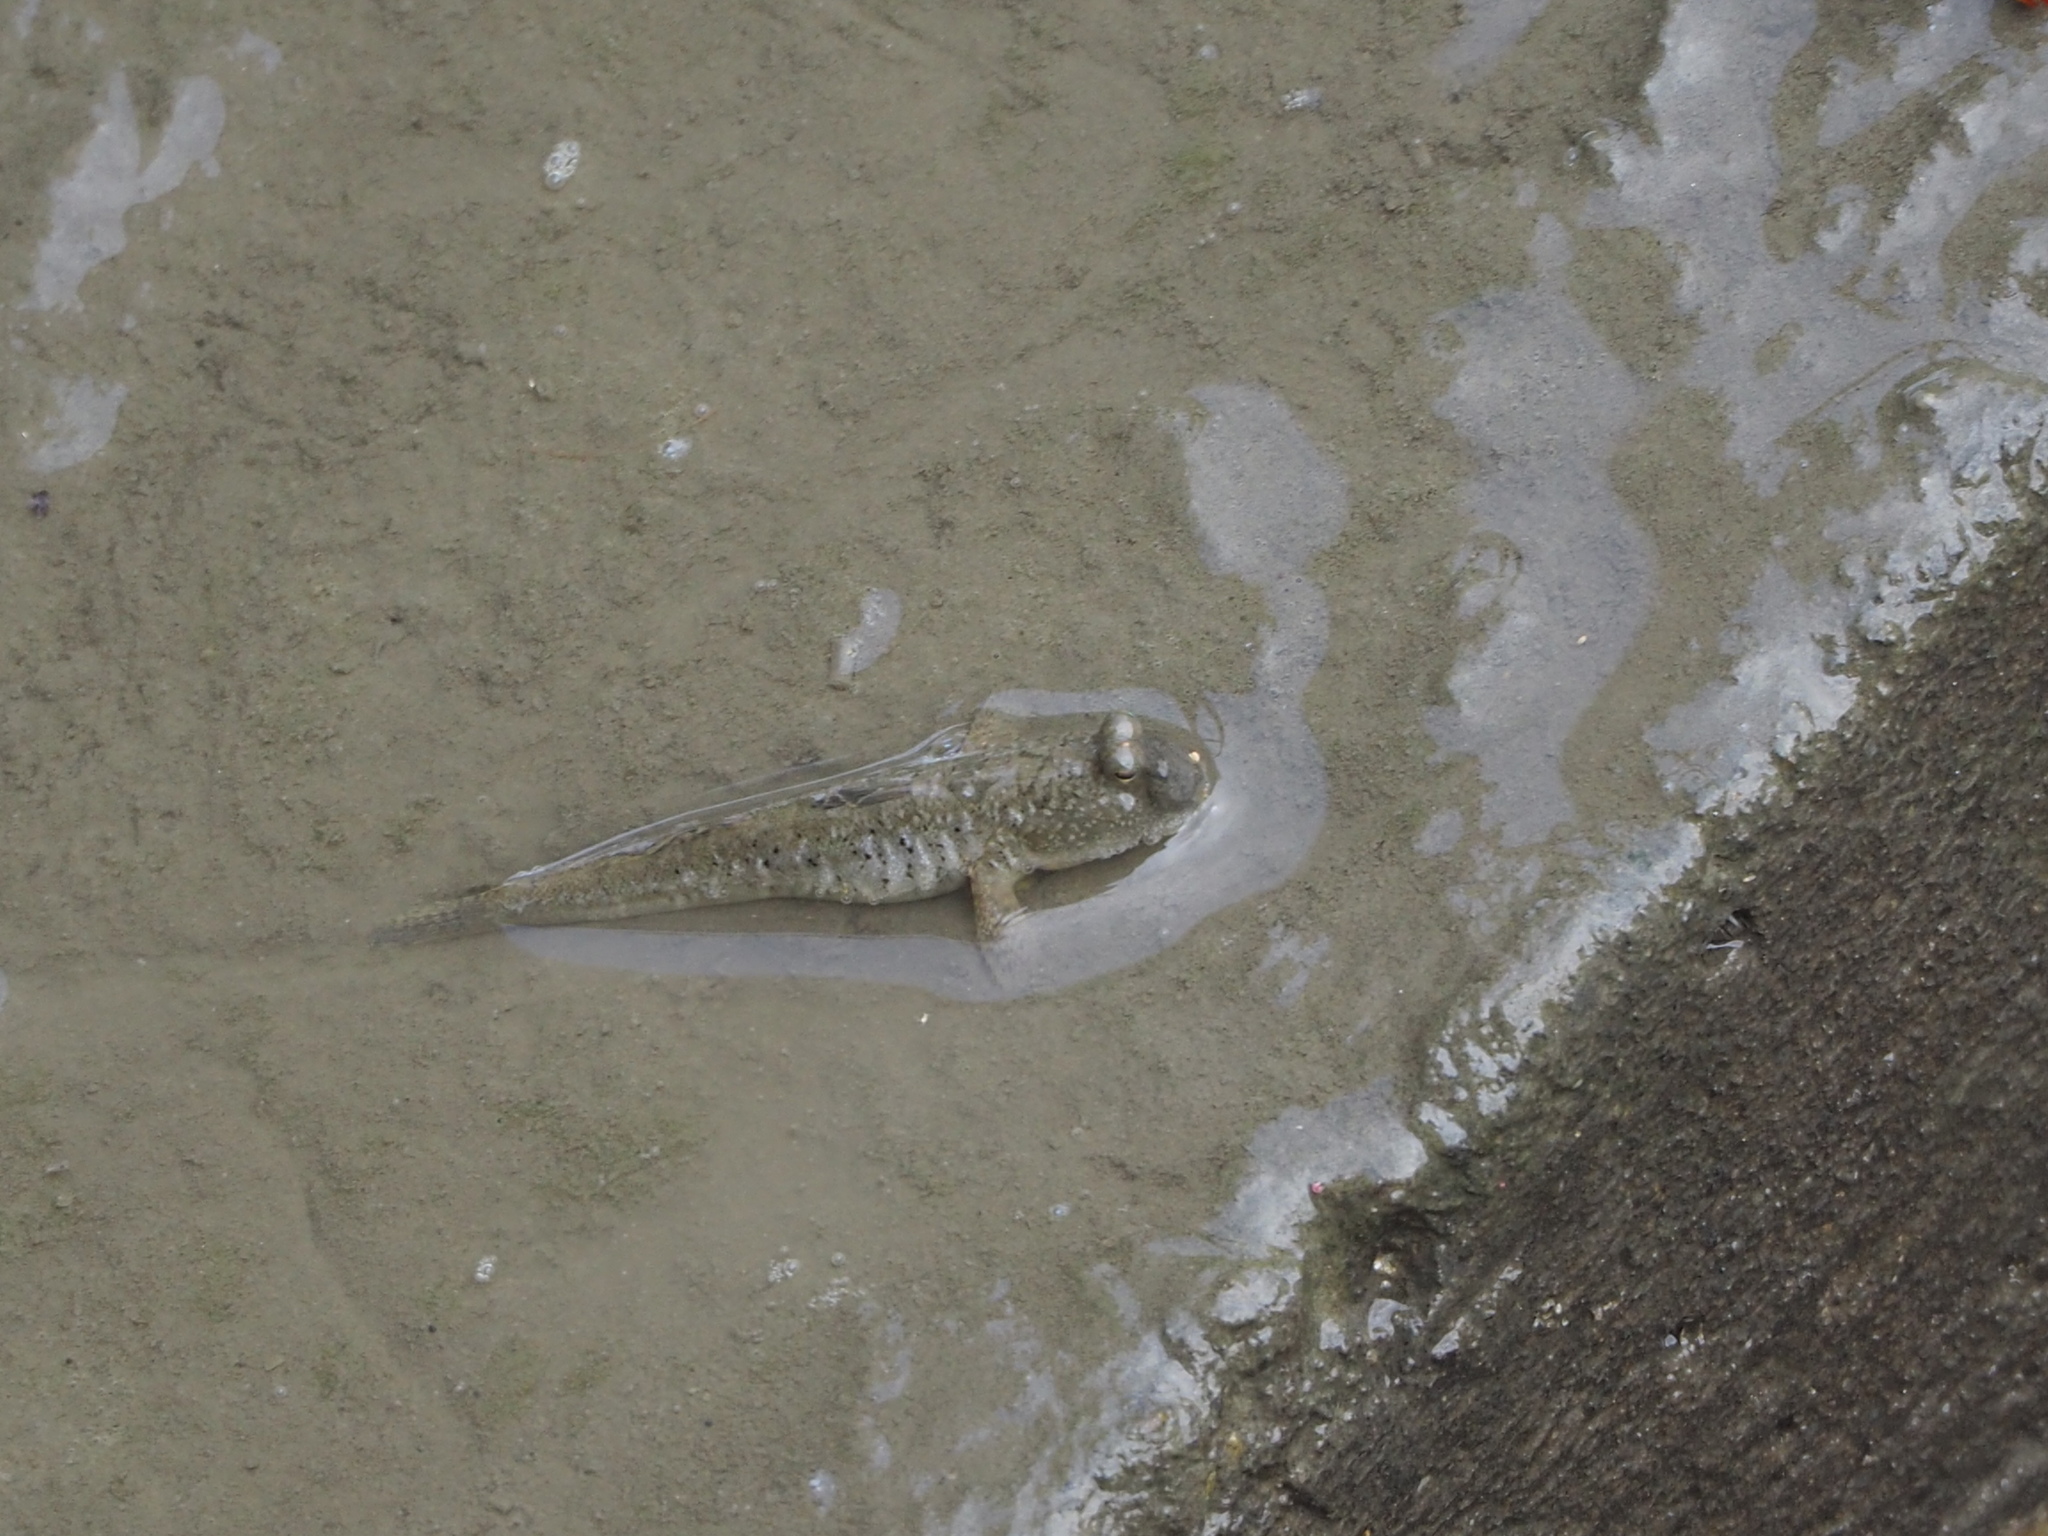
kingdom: Animalia
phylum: Chordata
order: Perciformes
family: Gobiidae
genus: Periophthalmus
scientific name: Periophthalmus modestus
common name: Black goby
